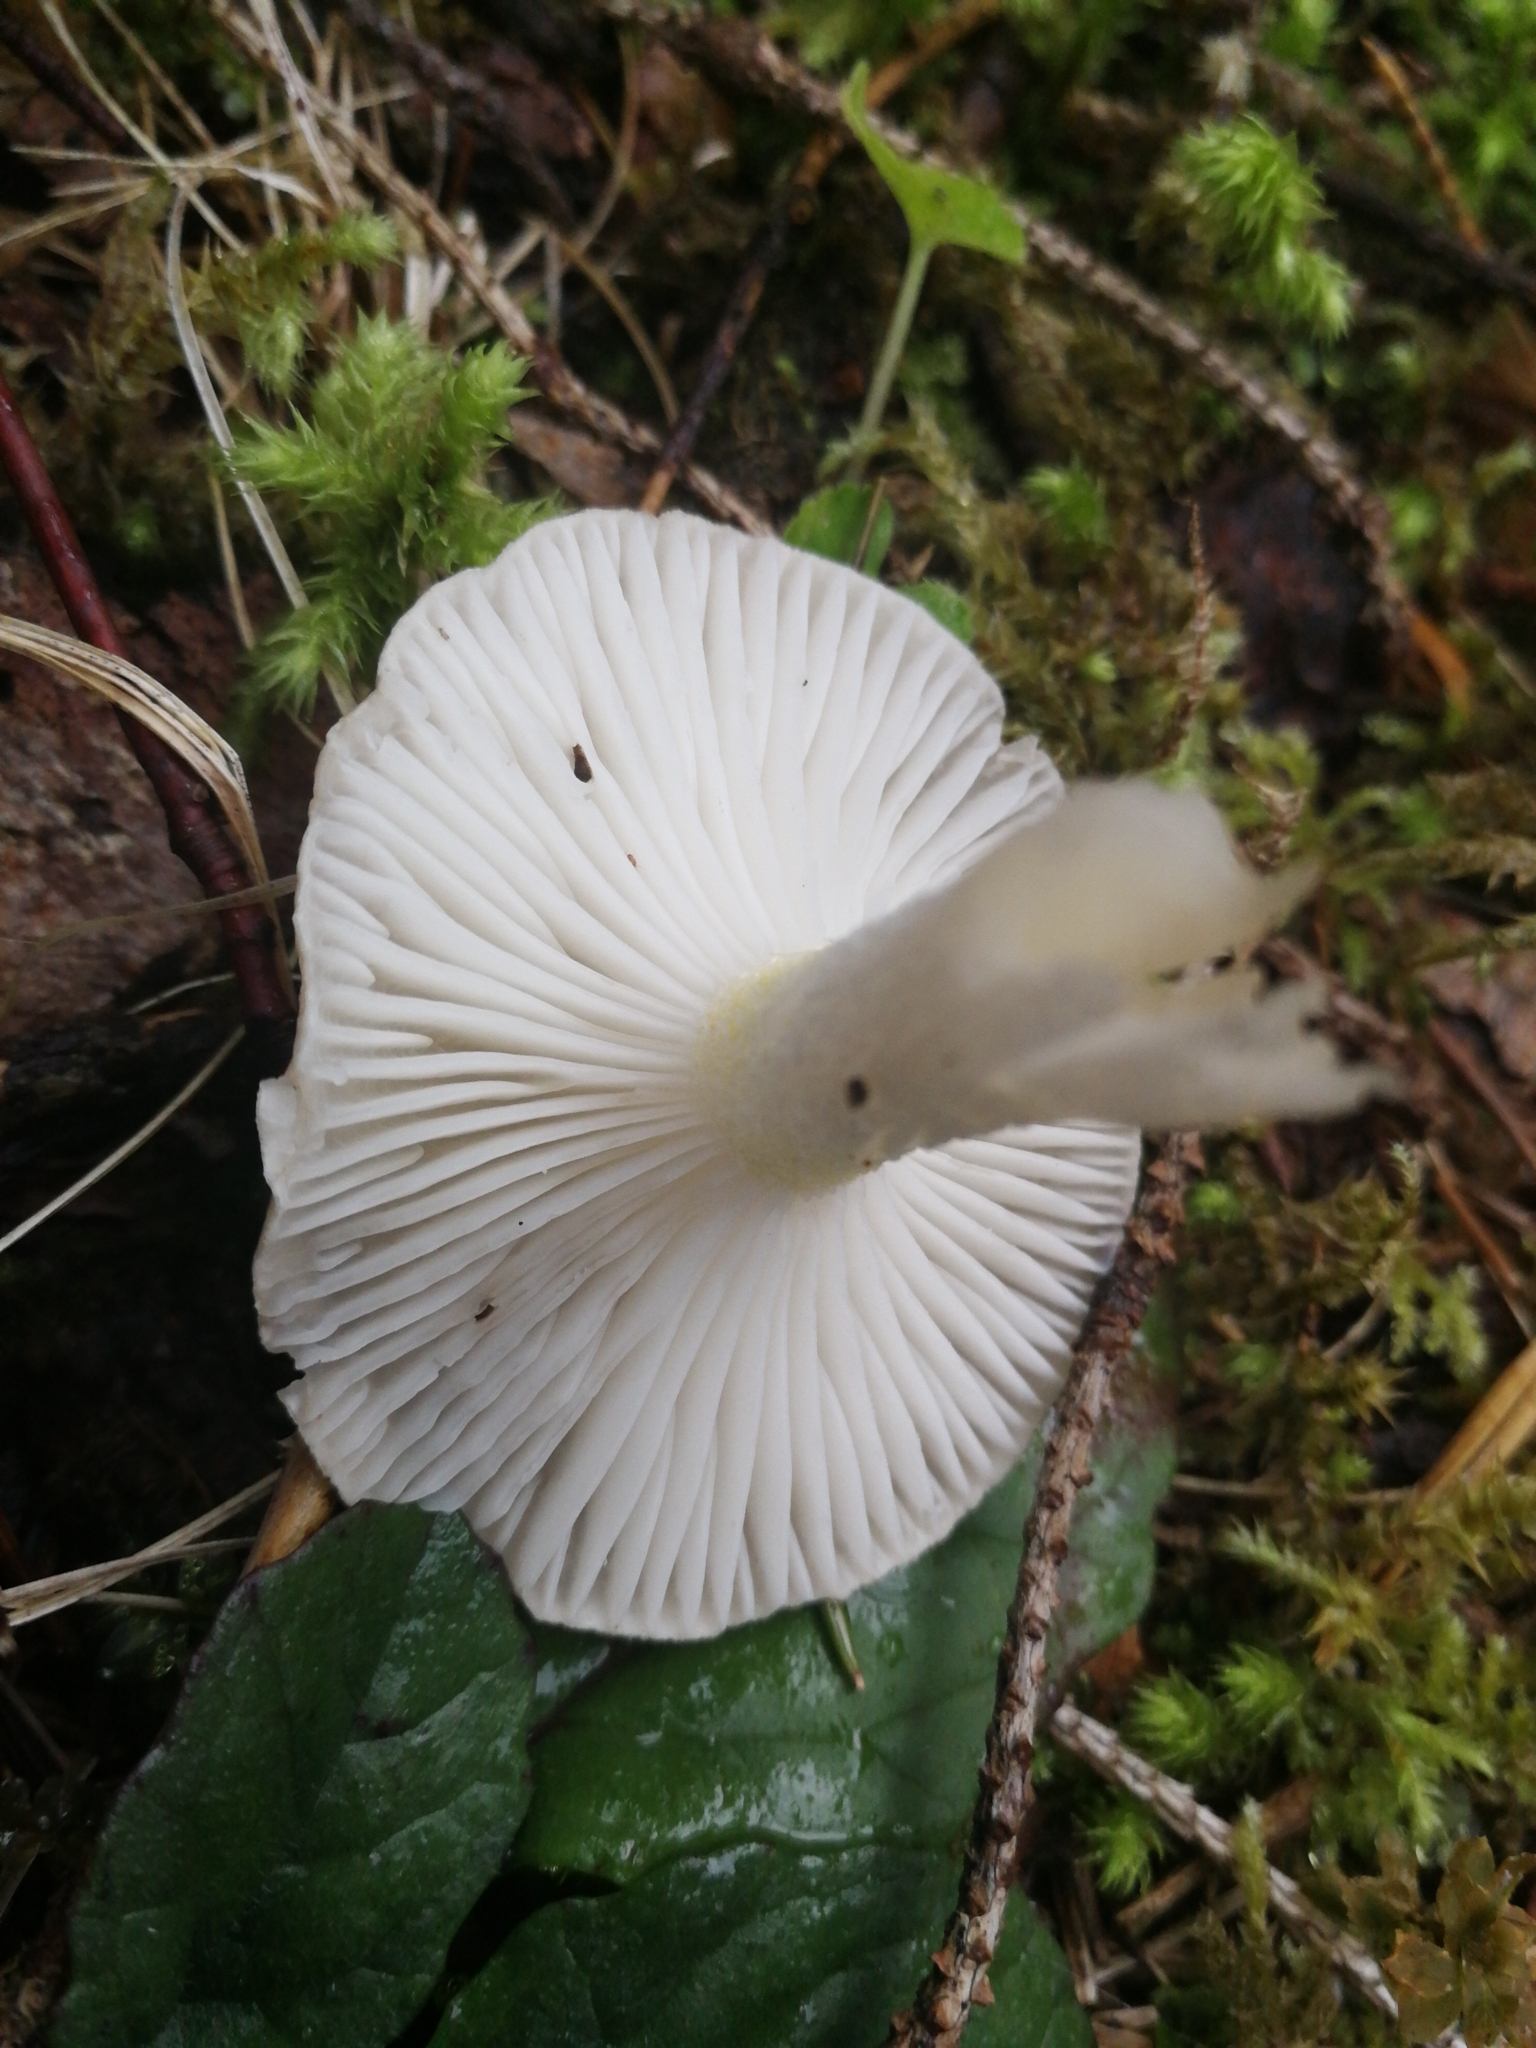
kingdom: Fungi
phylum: Basidiomycota
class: Agaricomycetes
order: Agaricales
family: Hygrophoraceae
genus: Hygrophorus
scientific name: Hygrophorus agathosmus
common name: Almond woodwax
